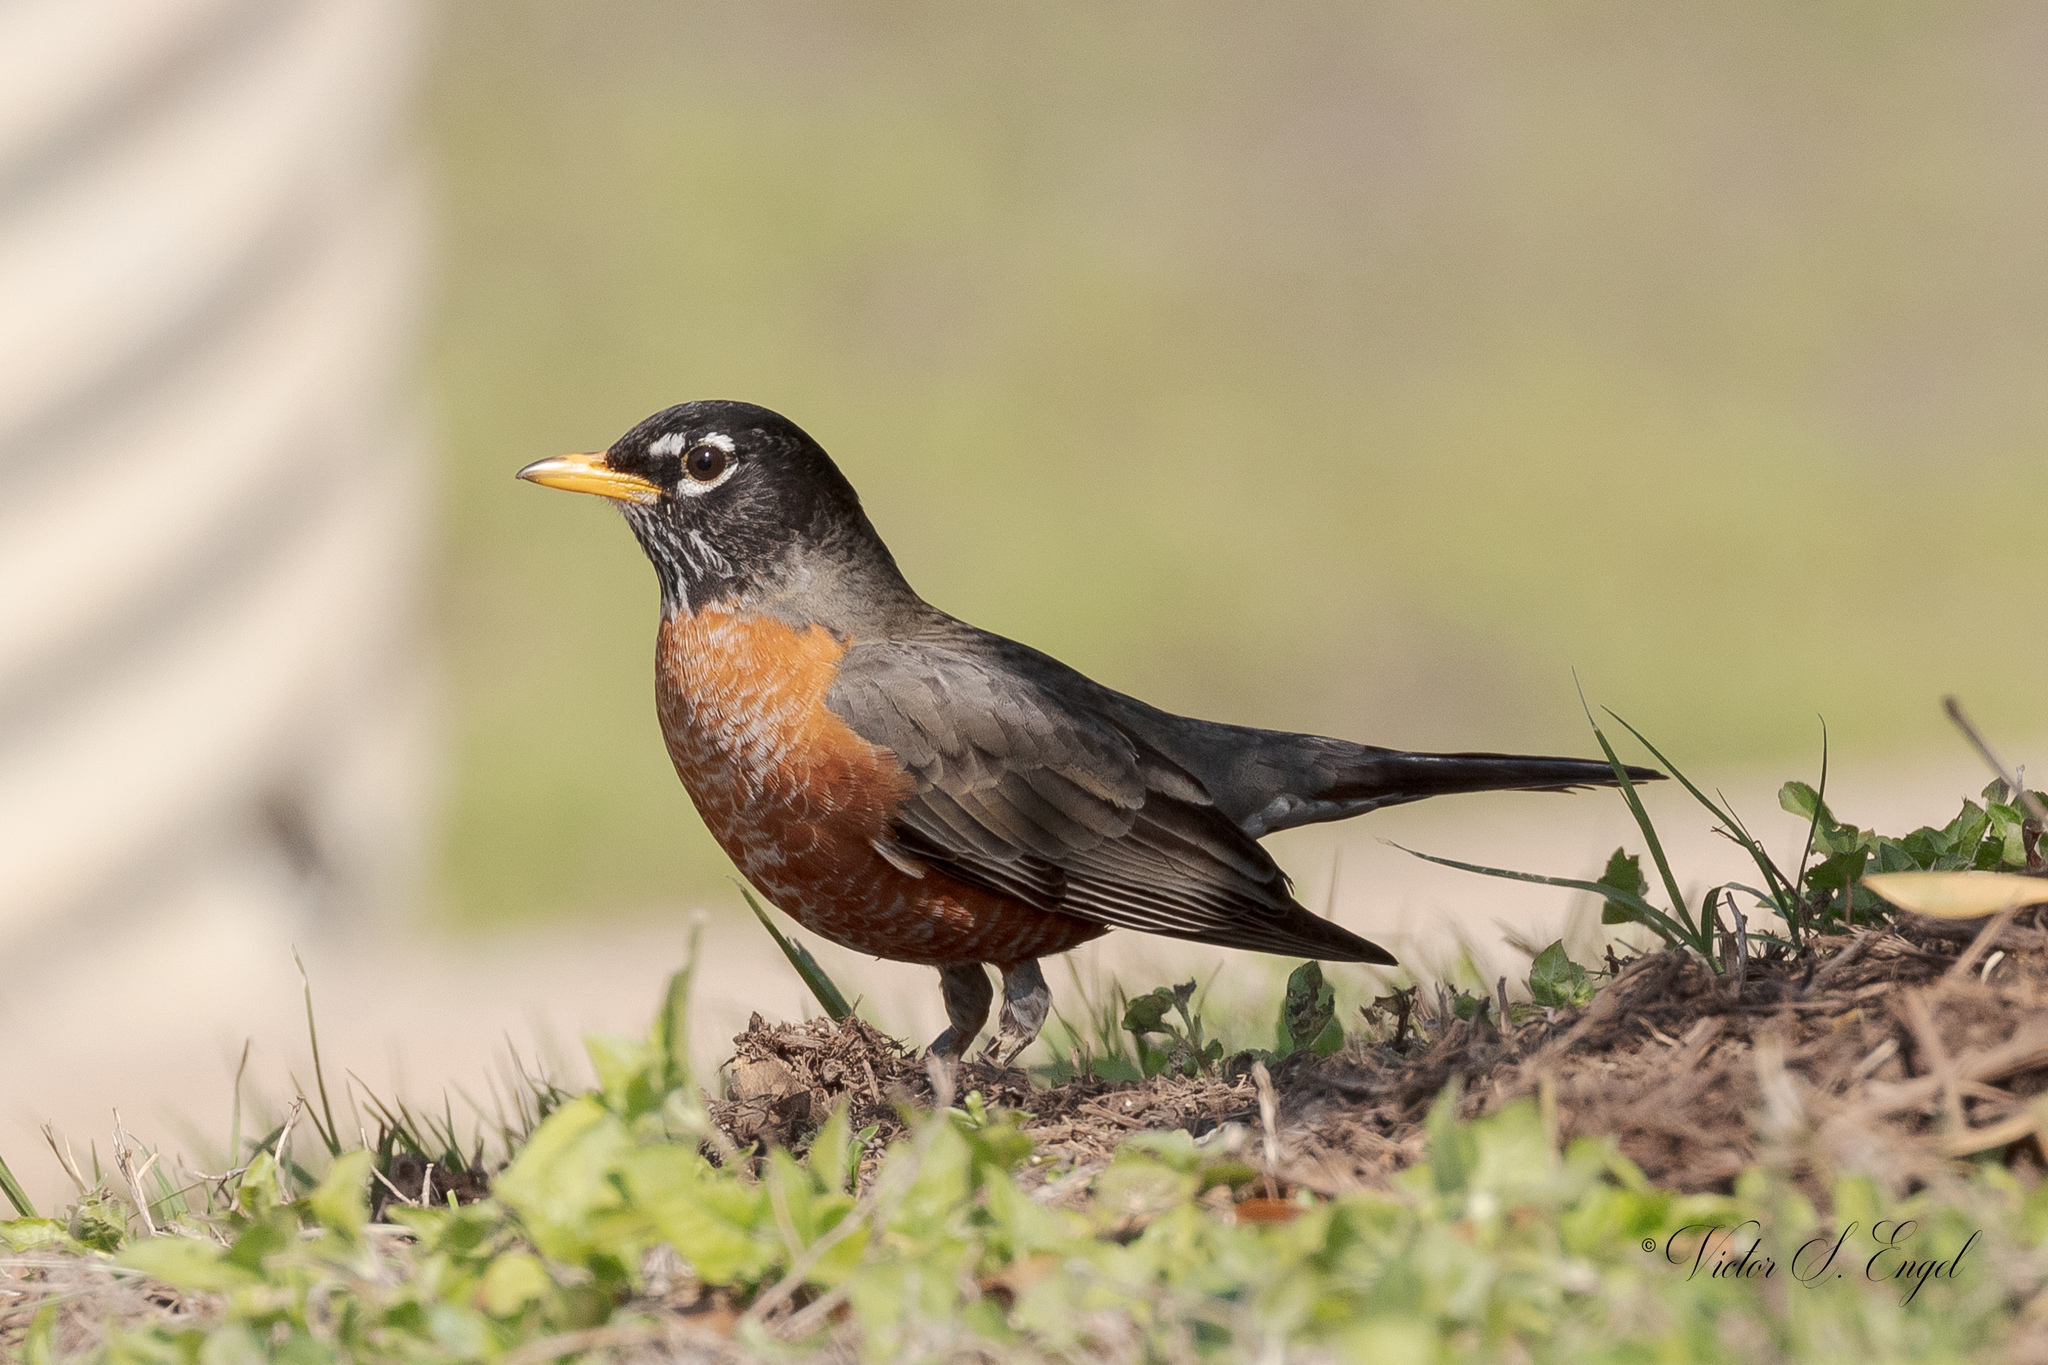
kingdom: Animalia
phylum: Chordata
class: Aves
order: Passeriformes
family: Turdidae
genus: Turdus
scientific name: Turdus migratorius
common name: American robin
